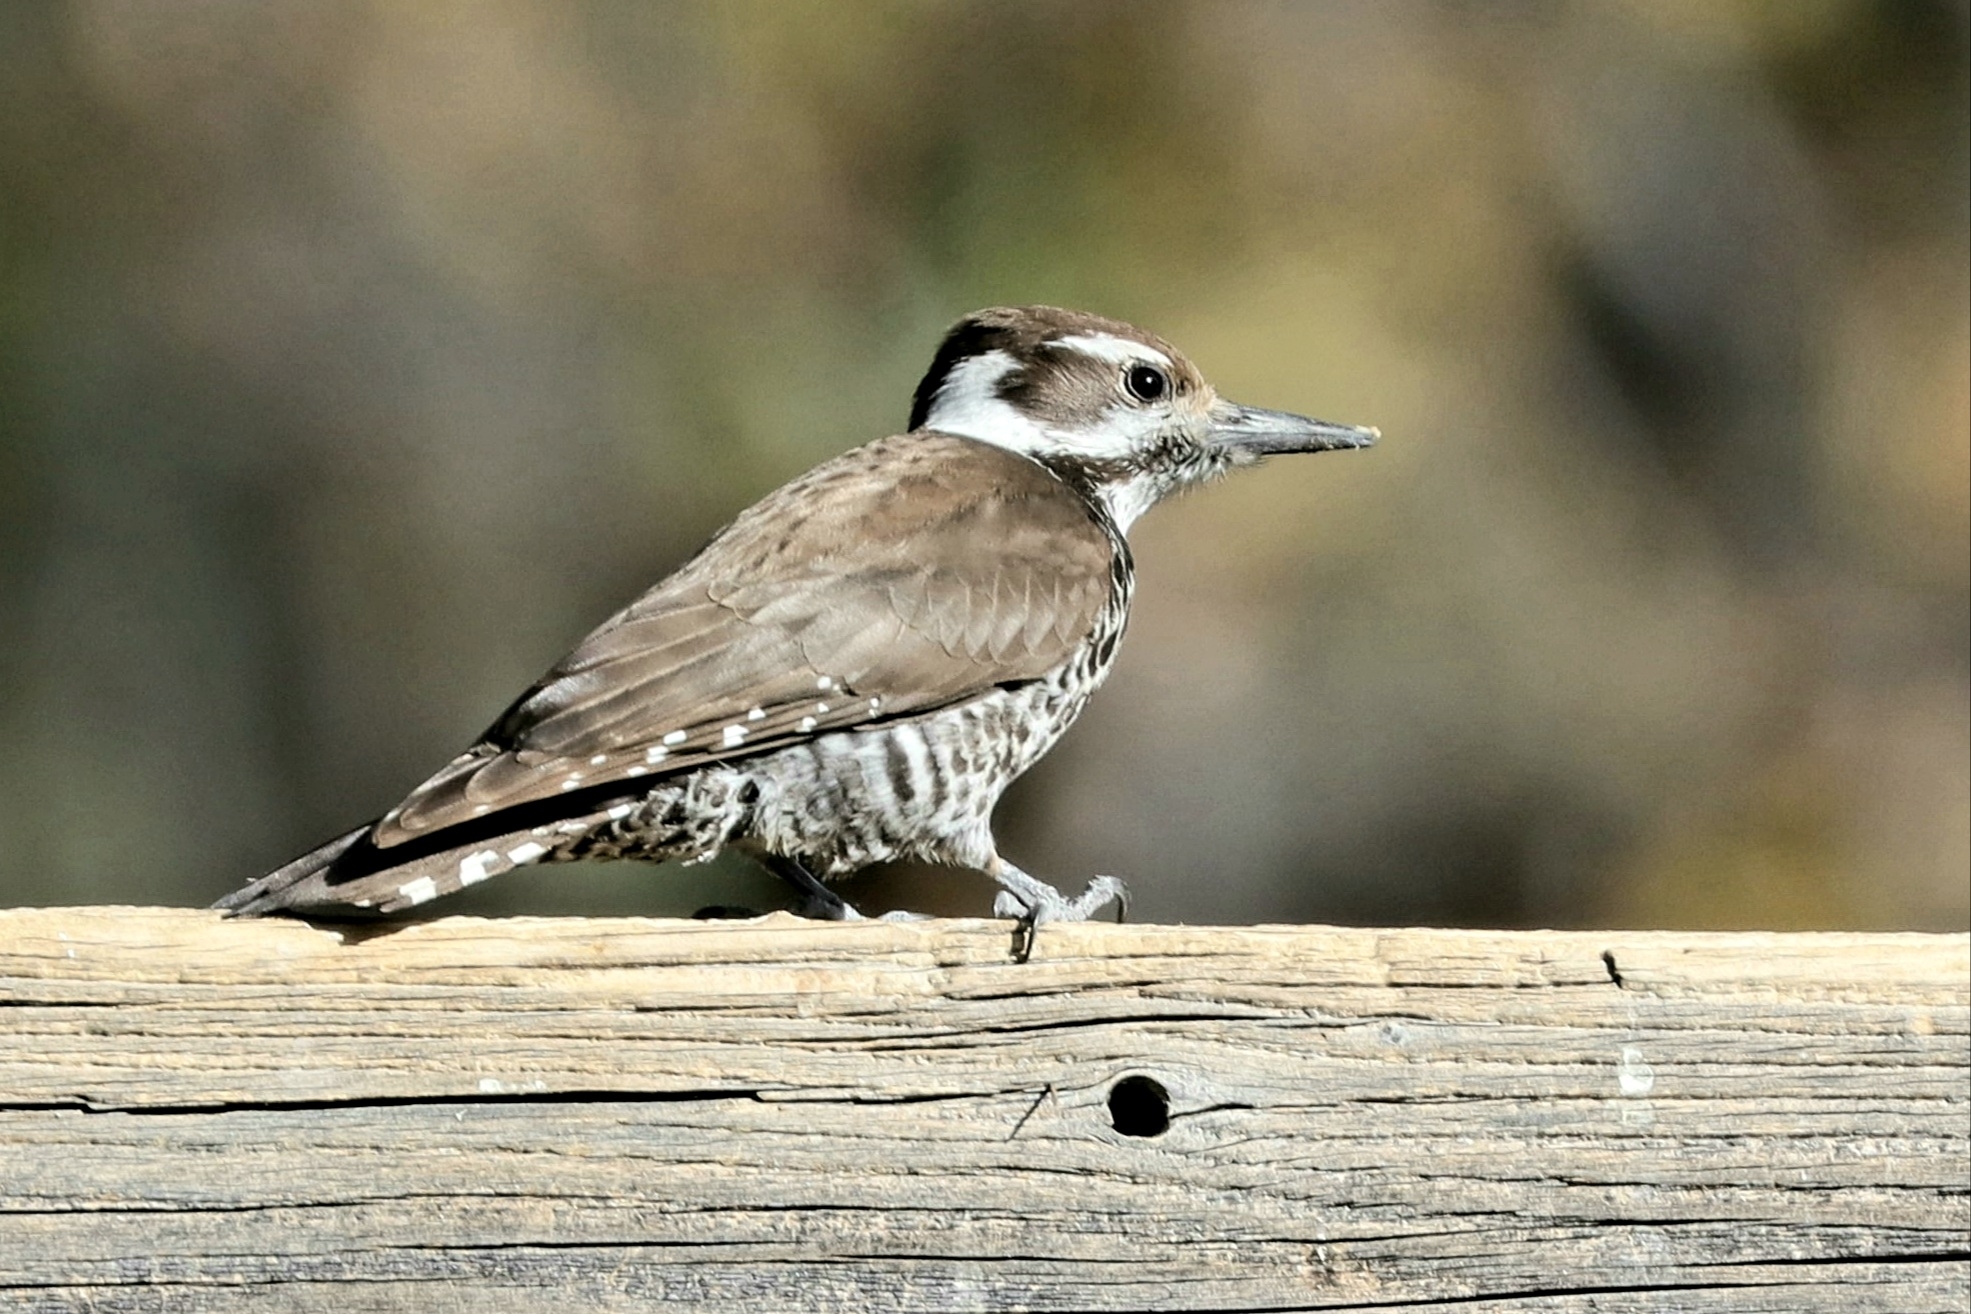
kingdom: Animalia
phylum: Chordata
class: Aves
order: Piciformes
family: Picidae
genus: Leuconotopicus
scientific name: Leuconotopicus arizonae
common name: Arizona woodpecker
